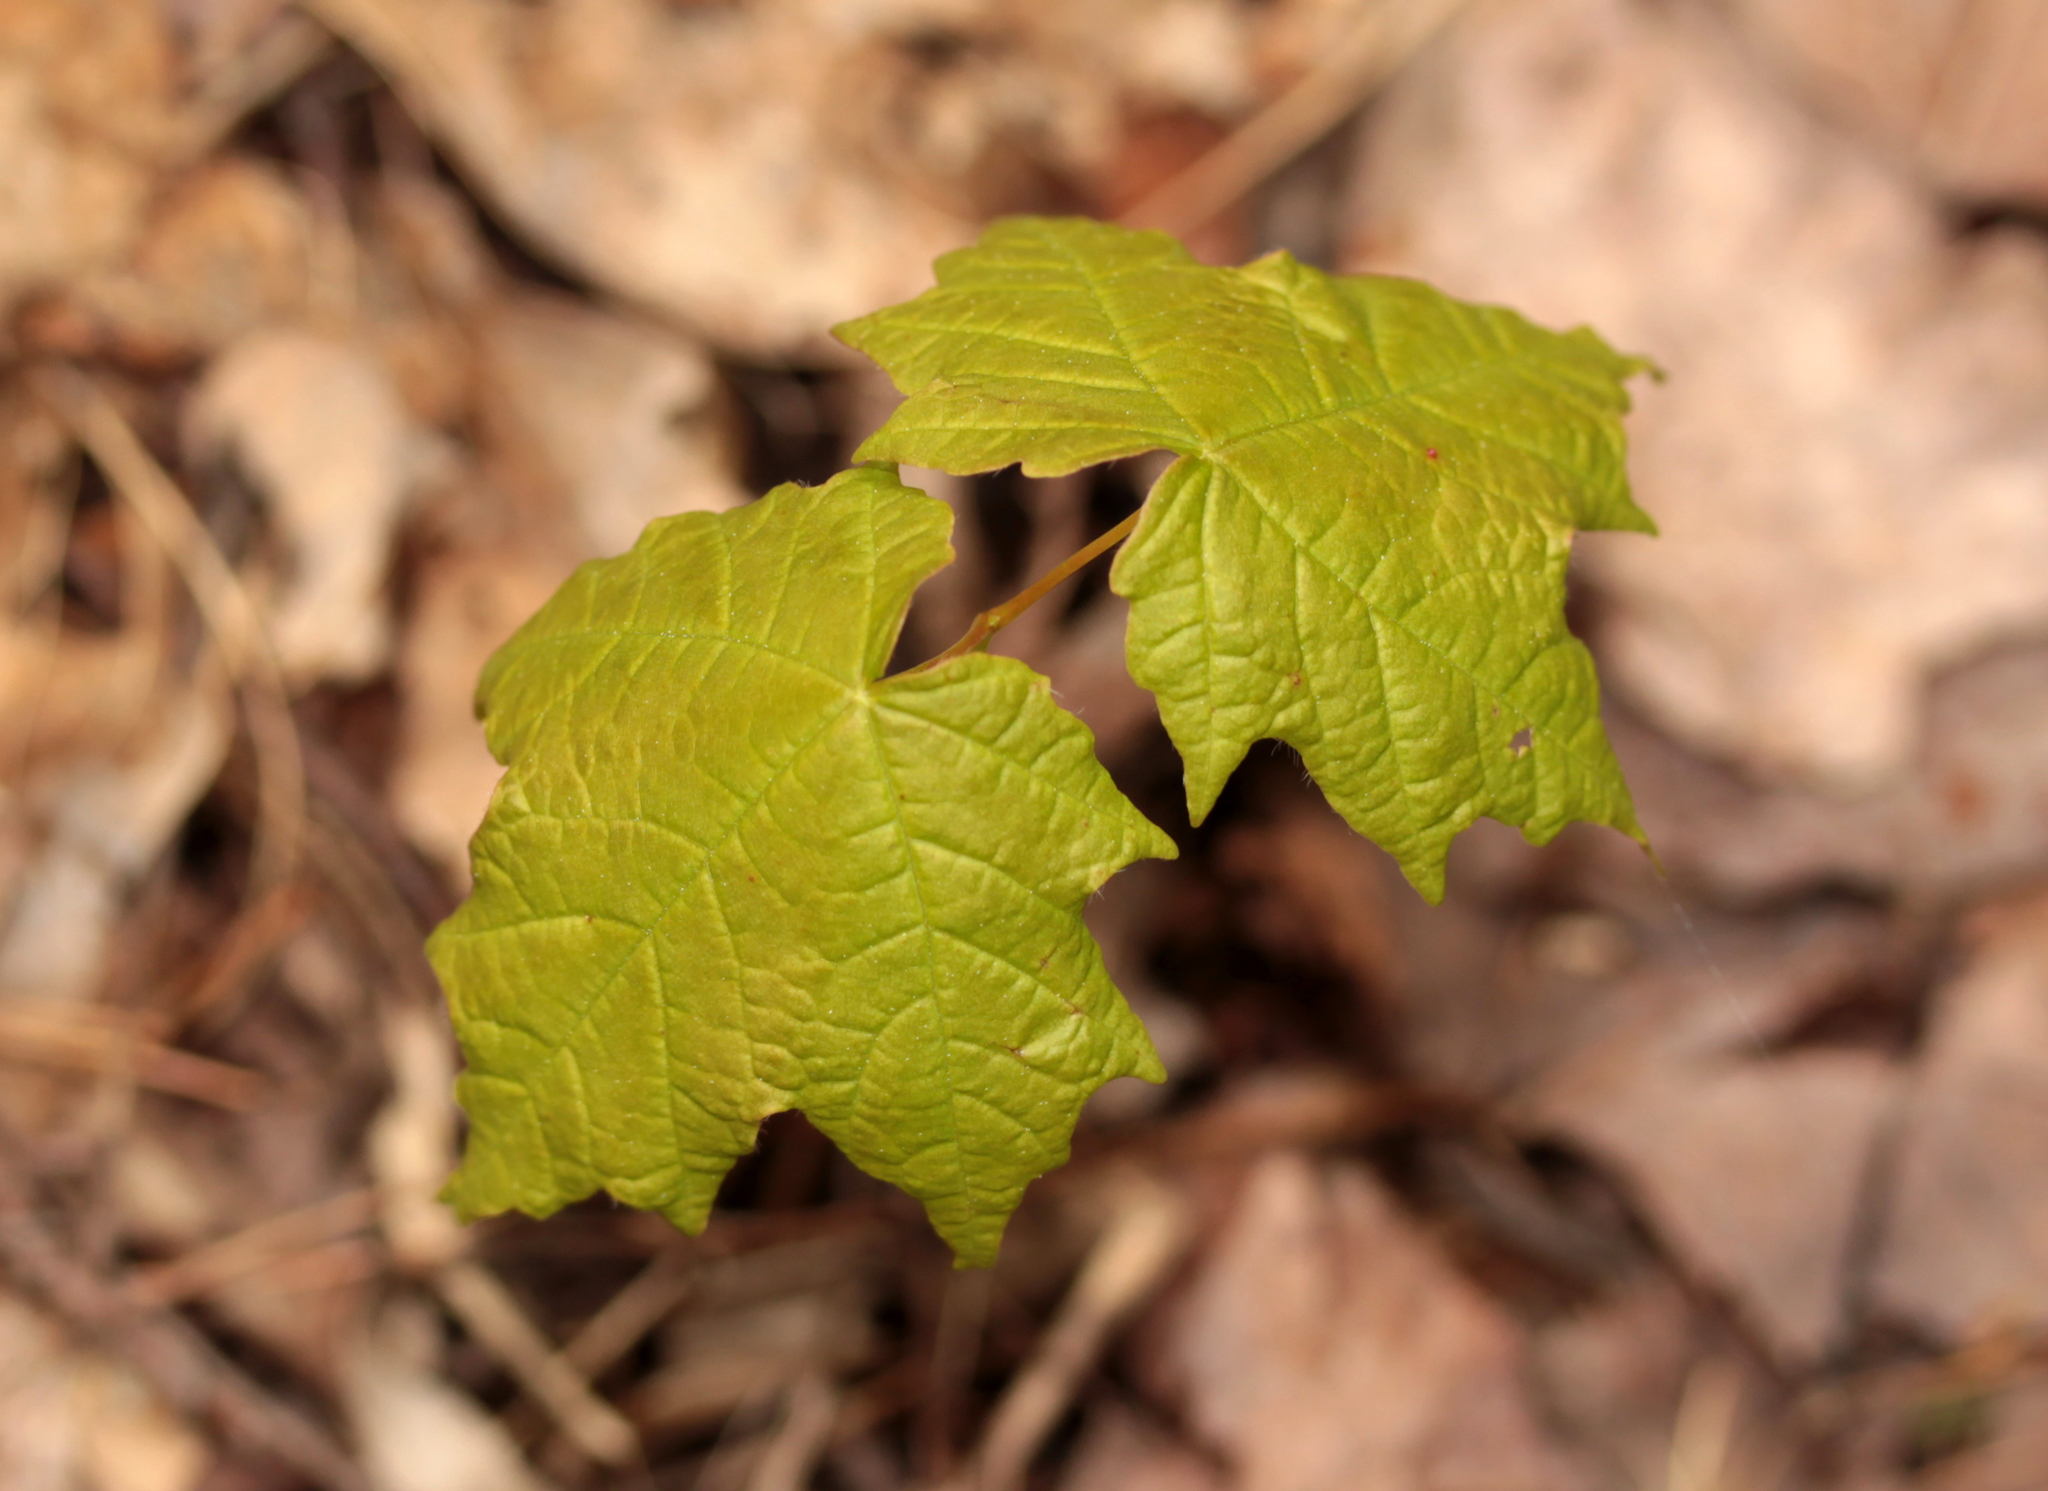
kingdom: Plantae
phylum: Tracheophyta
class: Magnoliopsida
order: Sapindales
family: Sapindaceae
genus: Acer
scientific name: Acer saccharum
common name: Sugar maple
